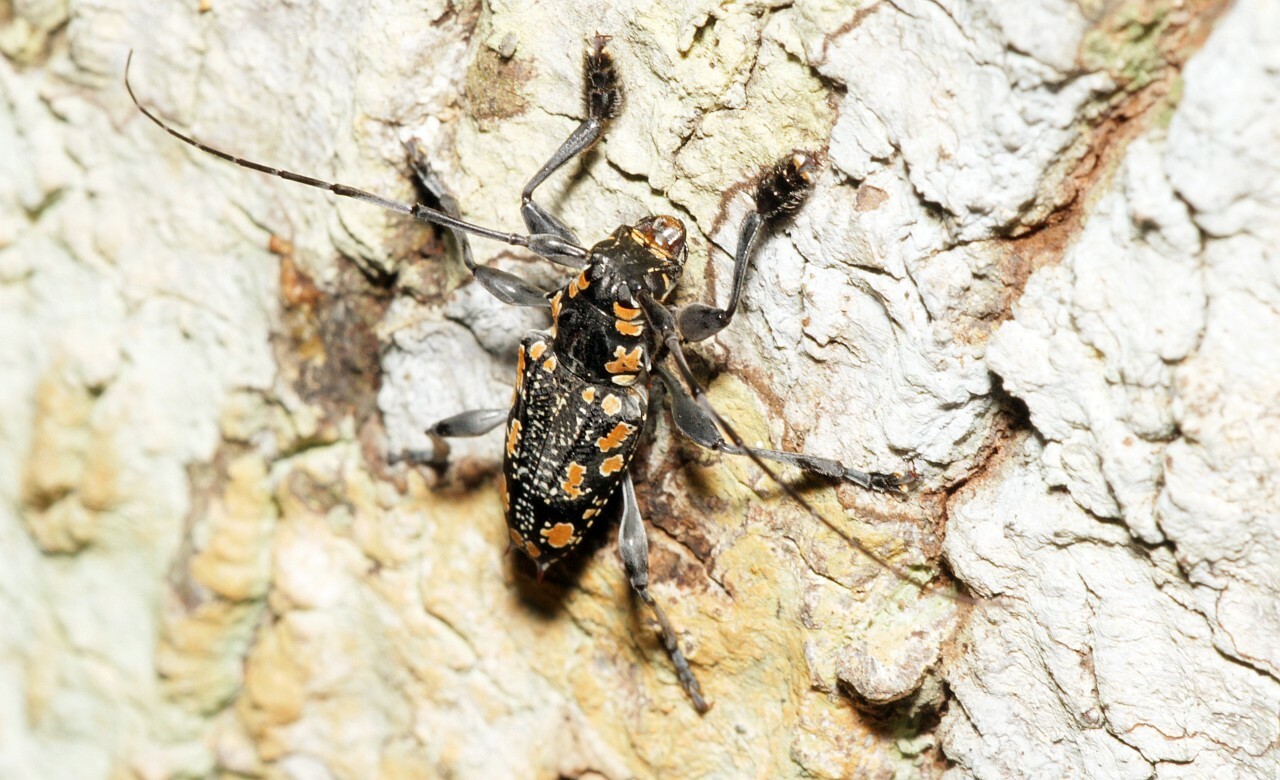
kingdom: Animalia
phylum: Arthropoda
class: Insecta
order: Coleoptera
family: Cerambycidae
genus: Aegomorphus
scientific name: Aegomorphus
